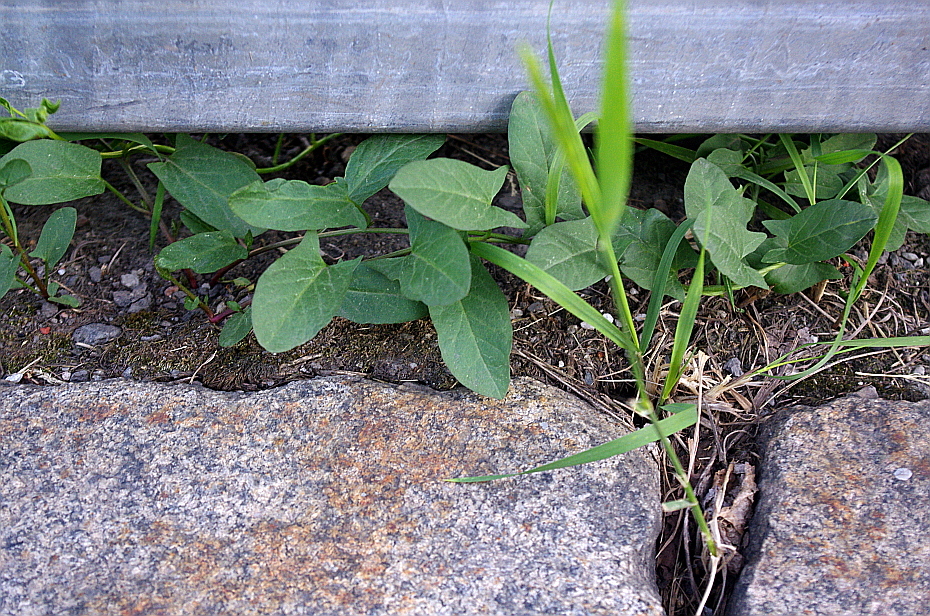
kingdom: Plantae
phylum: Tracheophyta
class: Magnoliopsida
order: Solanales
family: Convolvulaceae
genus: Convolvulus
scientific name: Convolvulus arvensis
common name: Field bindweed
